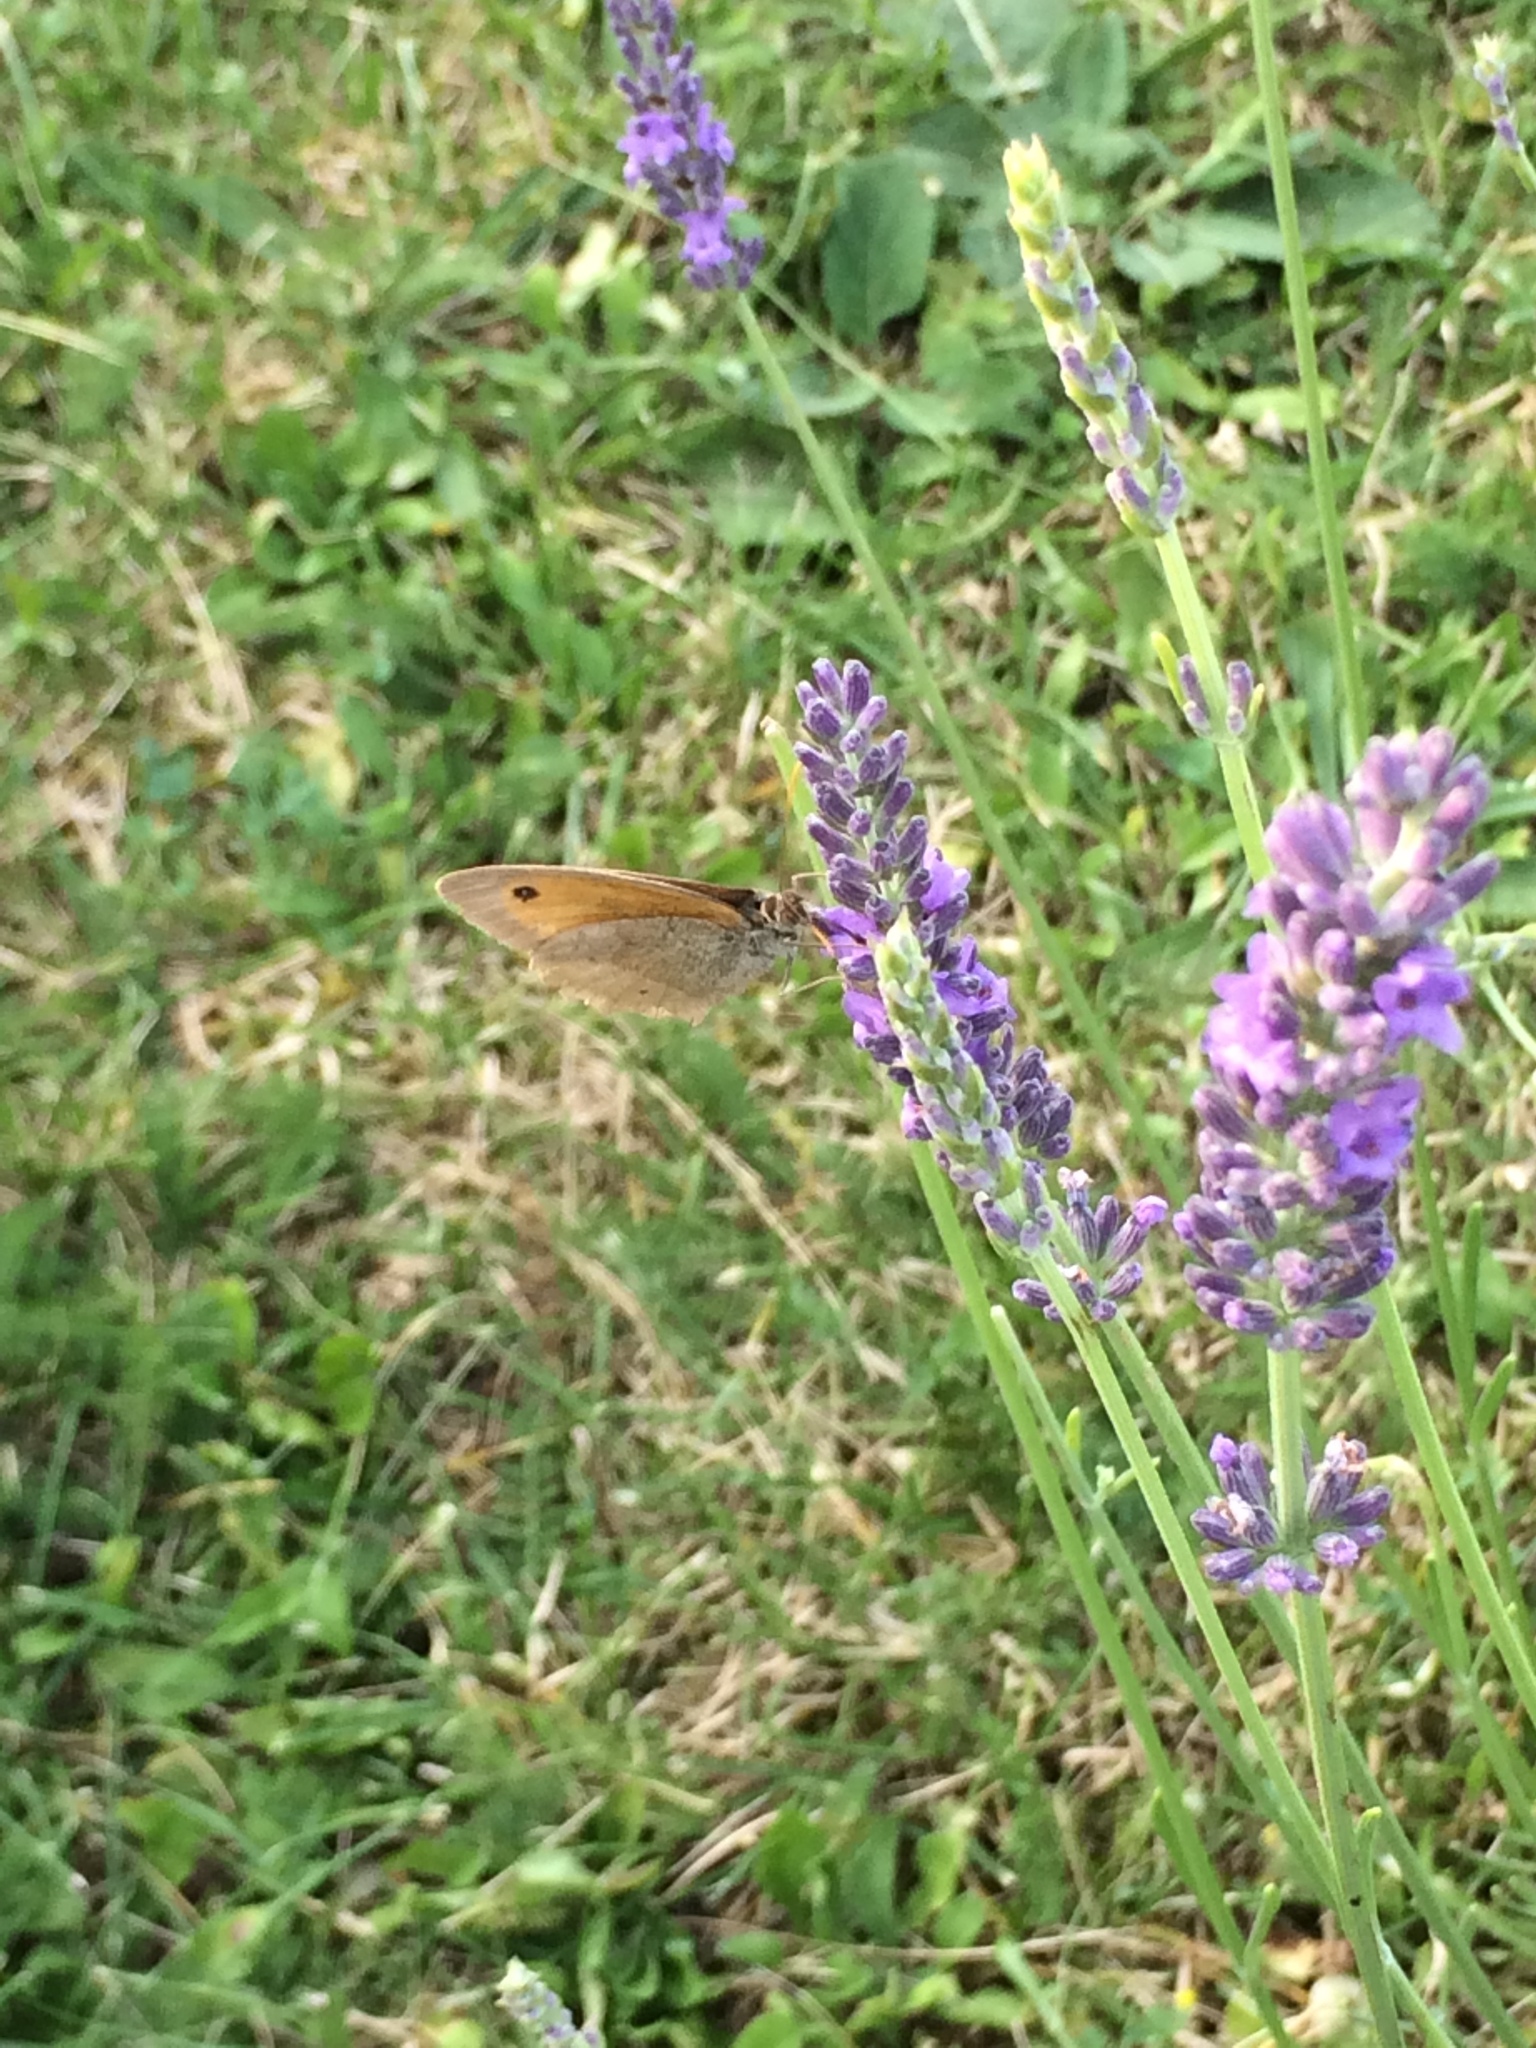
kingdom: Animalia
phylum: Arthropoda
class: Insecta
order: Lepidoptera
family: Nymphalidae
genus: Maniola
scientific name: Maniola jurtina
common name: Meadow brown
